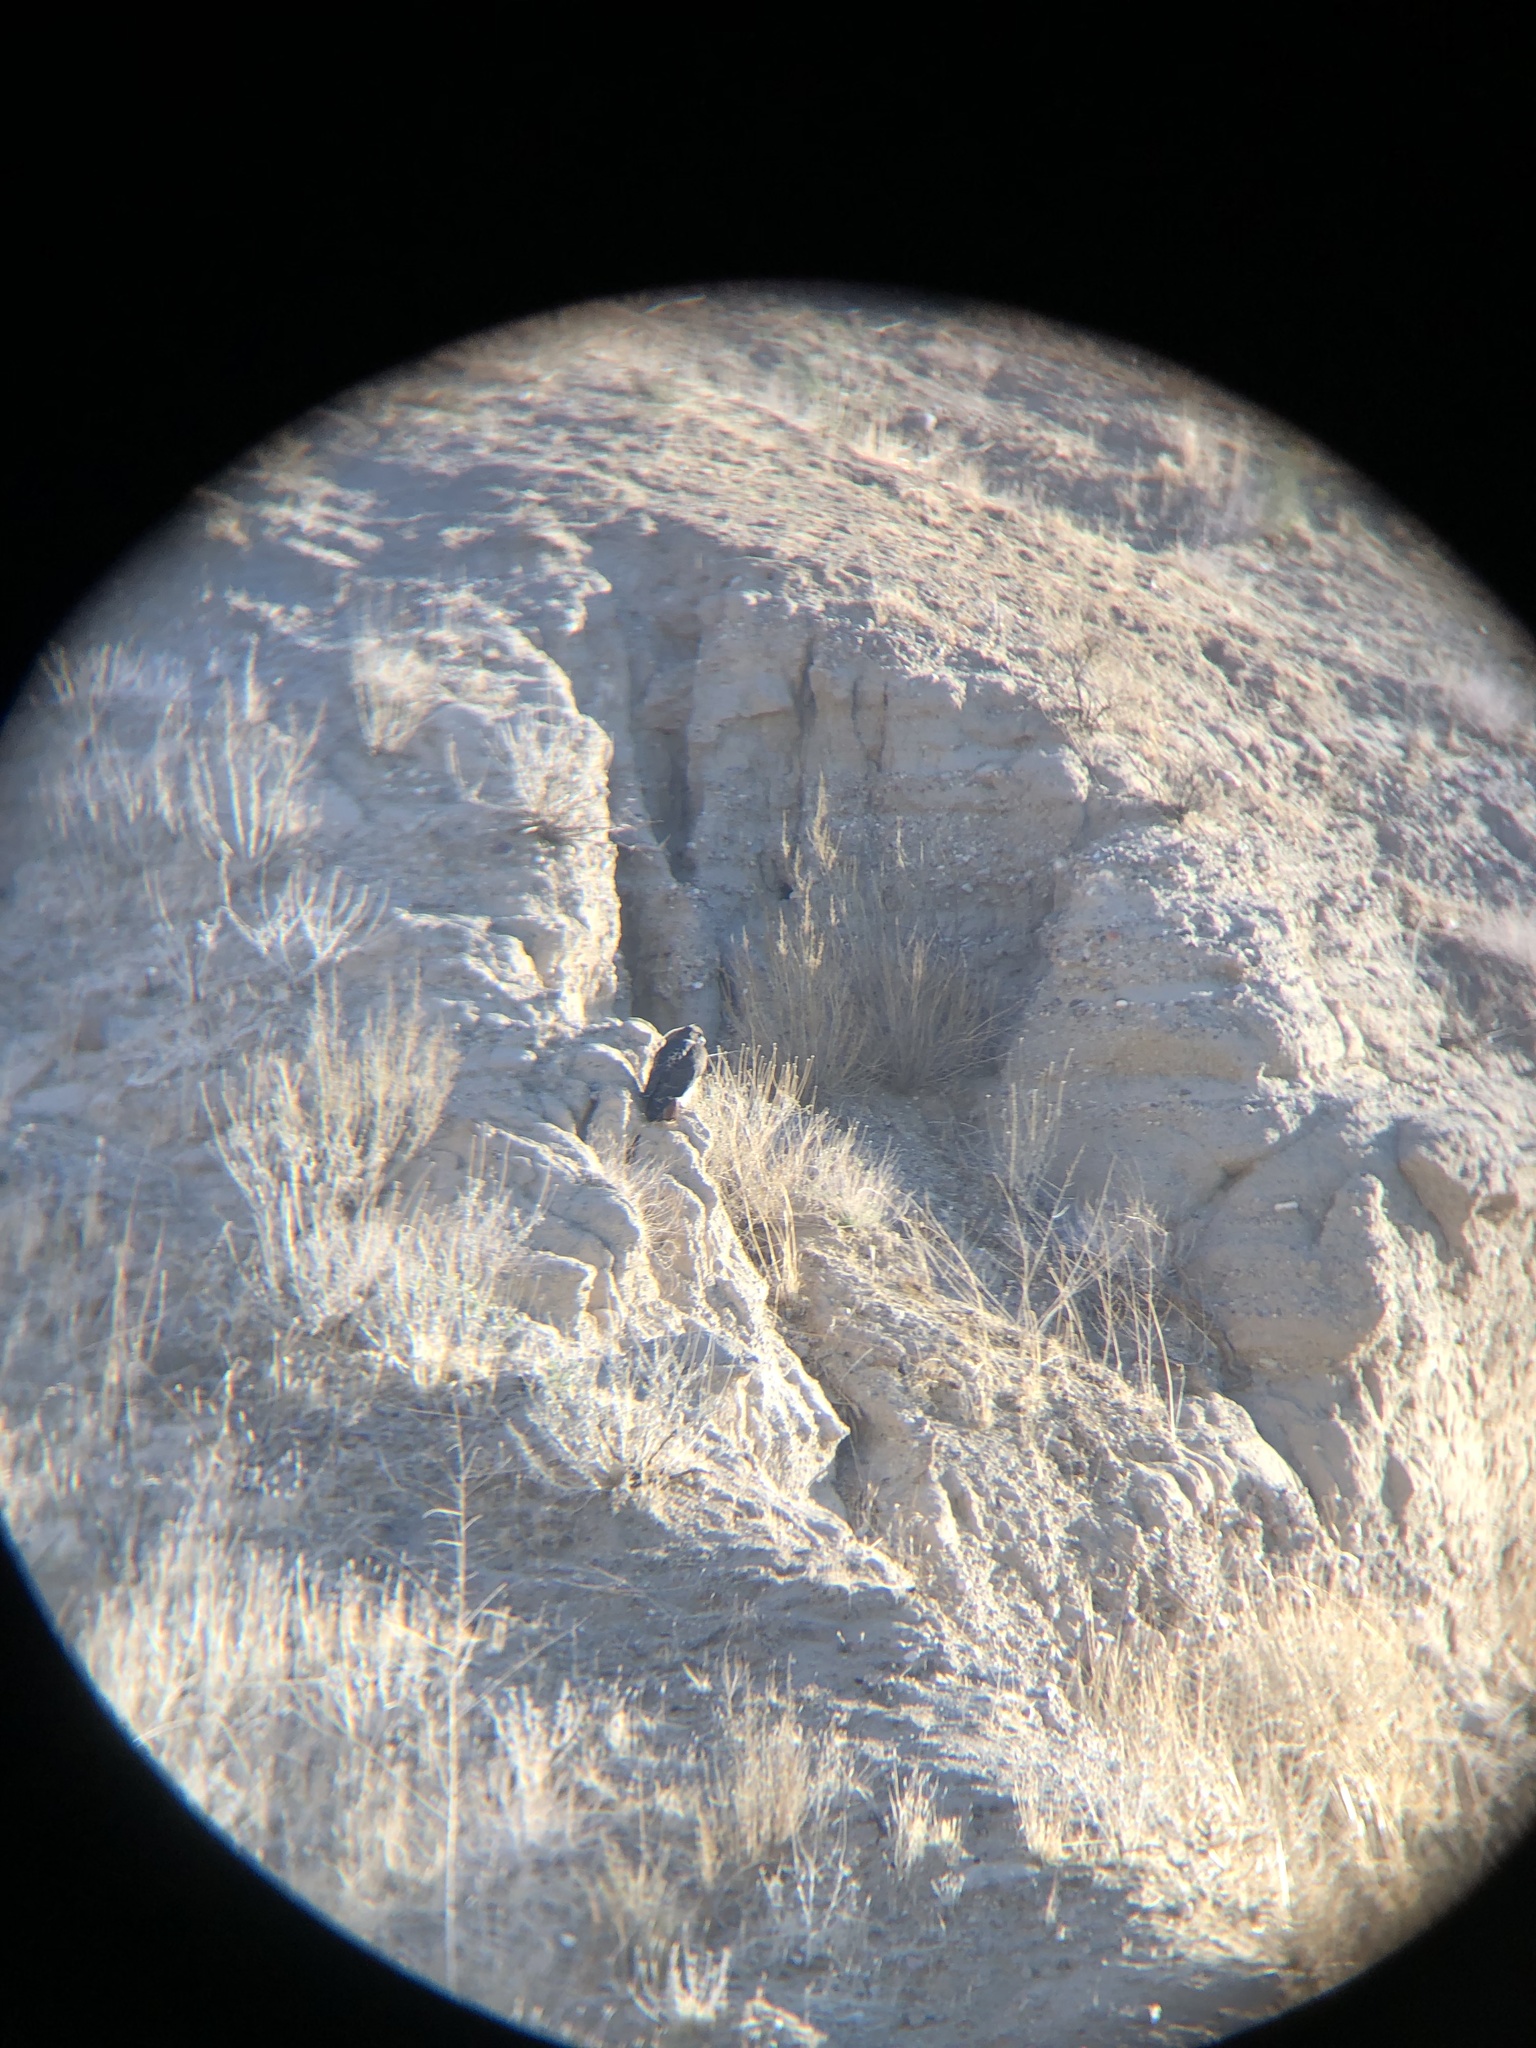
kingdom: Animalia
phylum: Chordata
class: Aves
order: Accipitriformes
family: Accipitridae
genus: Buteo
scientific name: Buteo jamaicensis
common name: Red-tailed hawk
